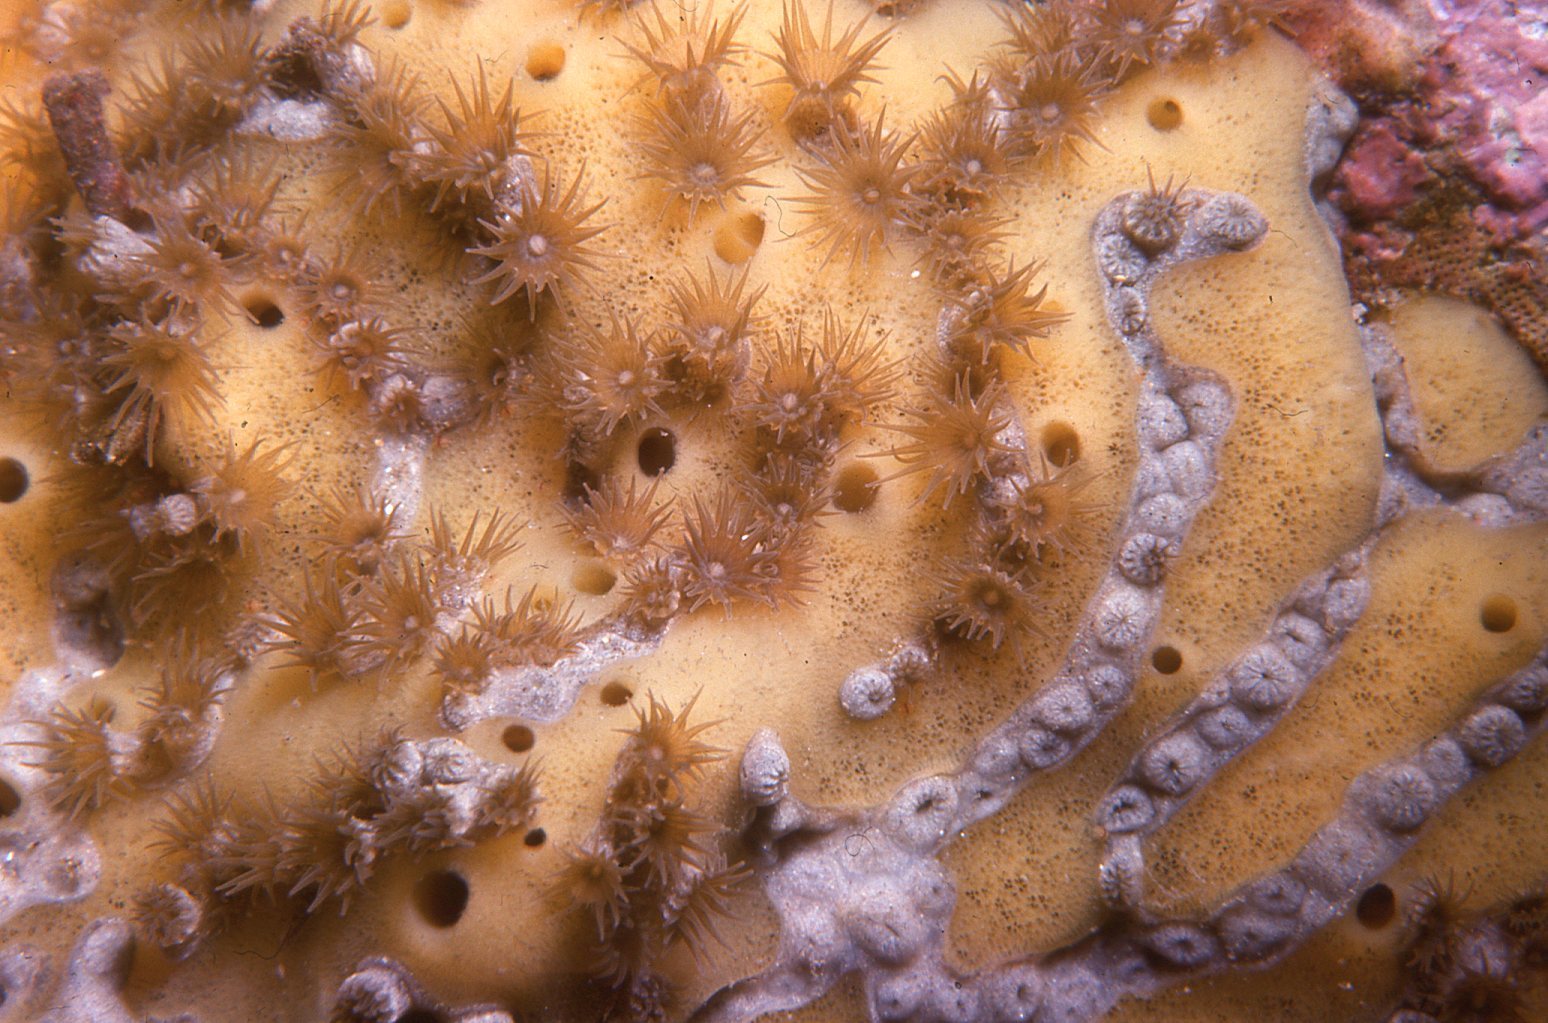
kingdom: Animalia
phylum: Cnidaria
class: Anthozoa
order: Zoantharia
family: Epizoanthidae
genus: Epizoanthus
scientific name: Epizoanthus sabulosus
